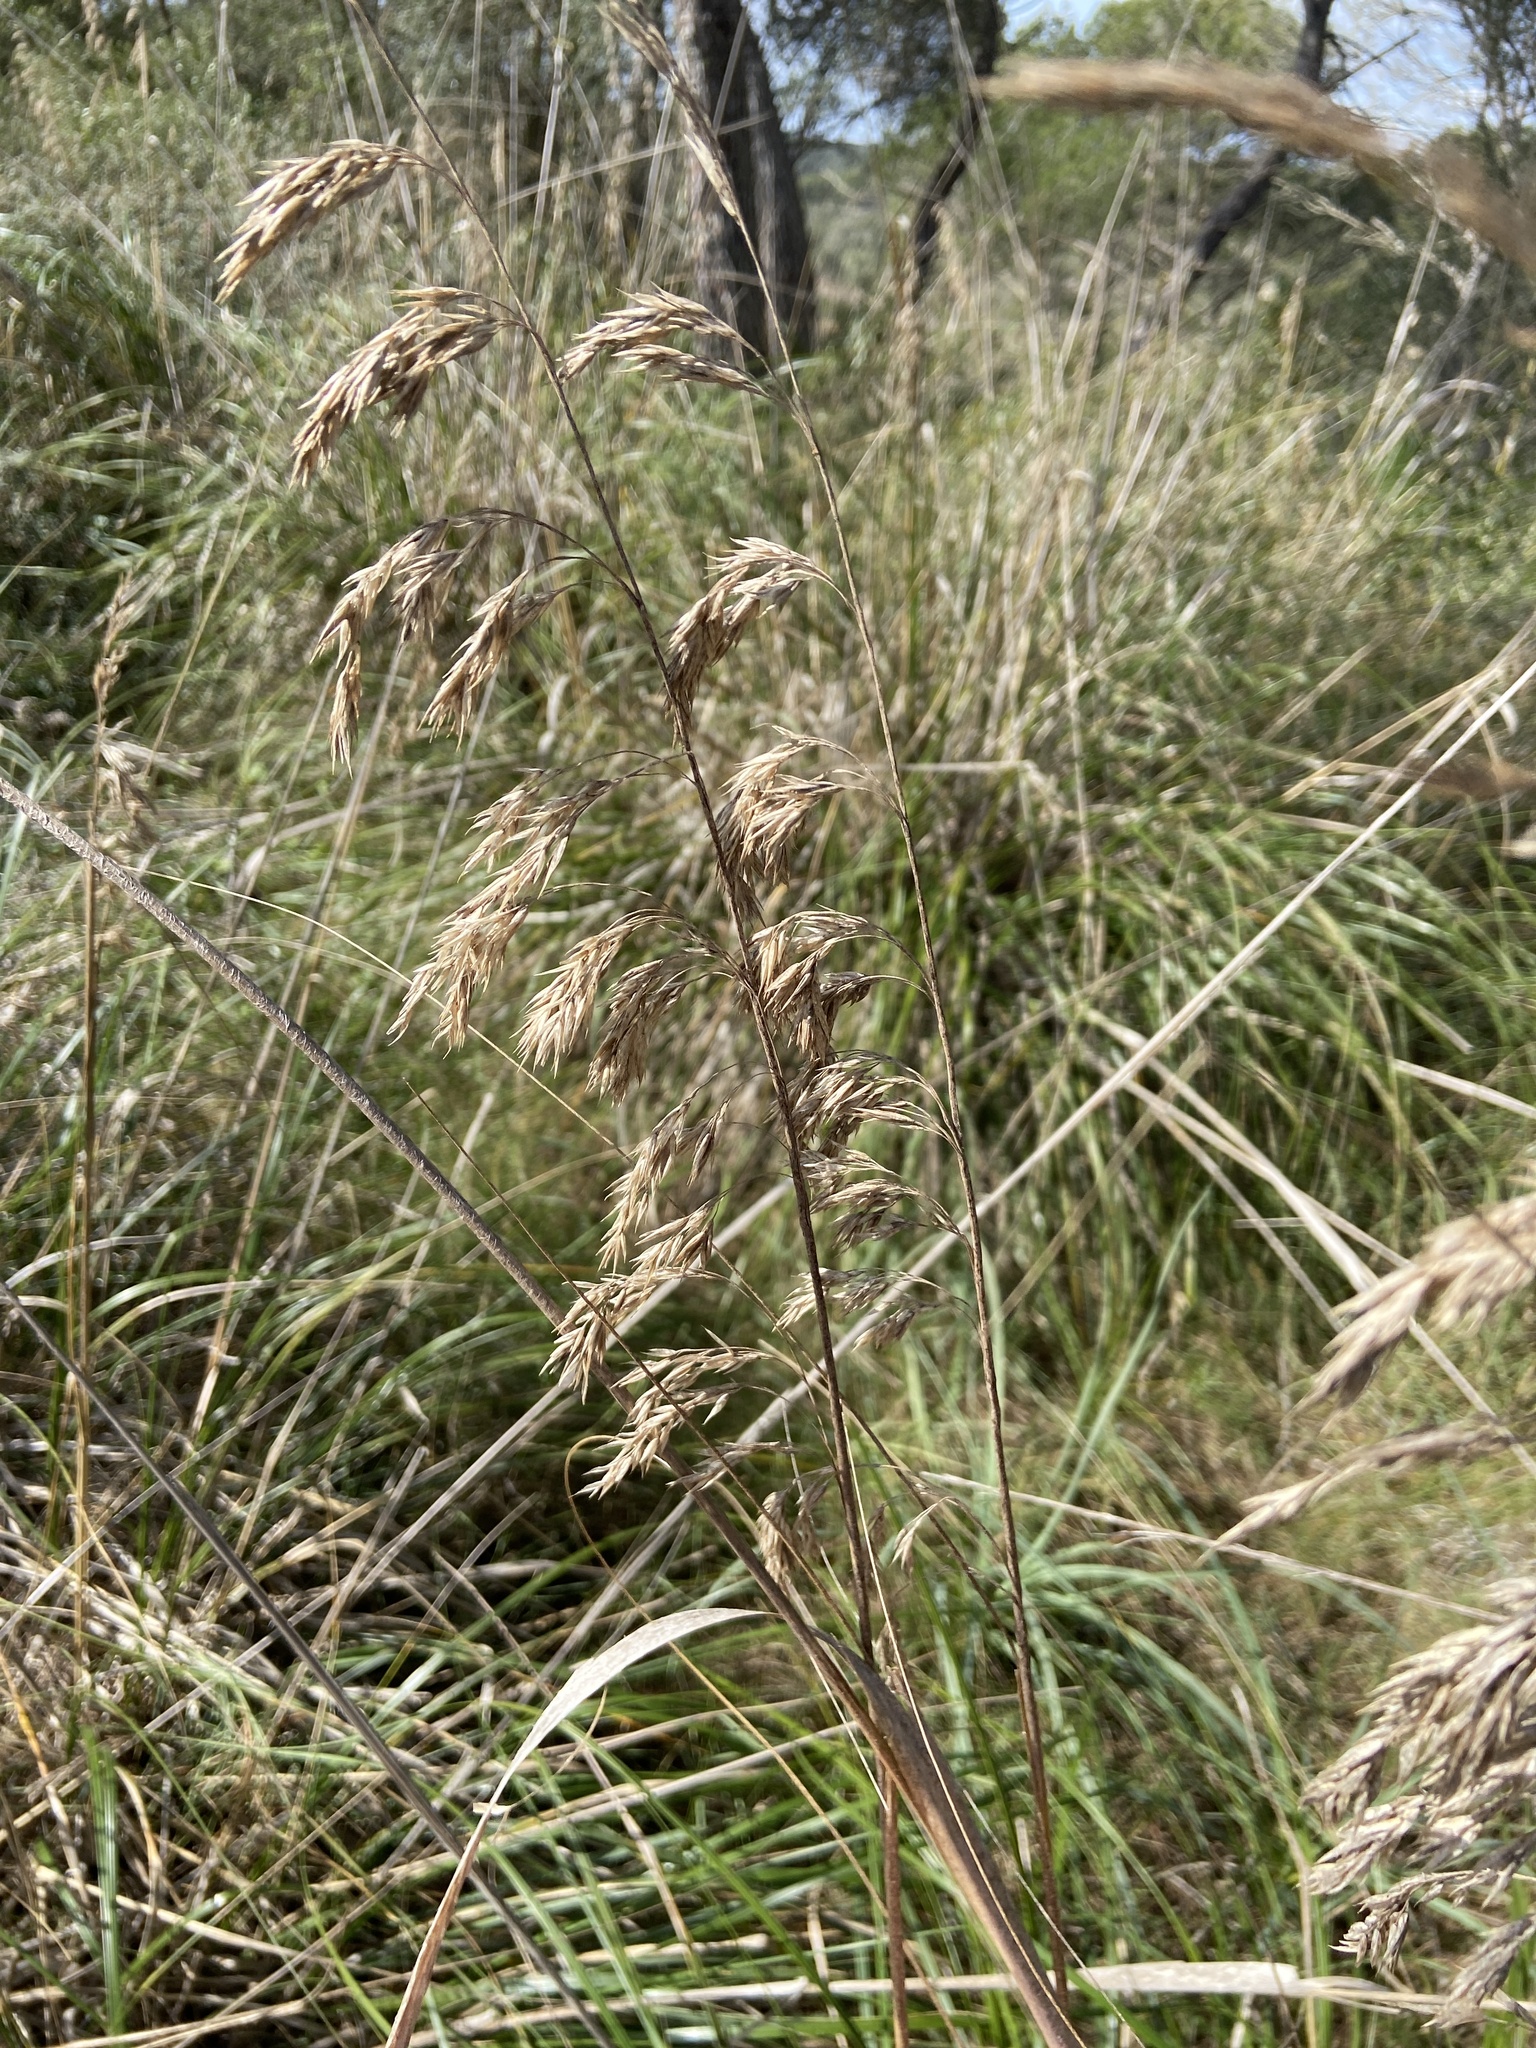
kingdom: Plantae
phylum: Tracheophyta
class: Liliopsida
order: Poales
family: Poaceae
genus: Ampelodesmos
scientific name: Ampelodesmos mauritanicus
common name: Mauritanian grass
